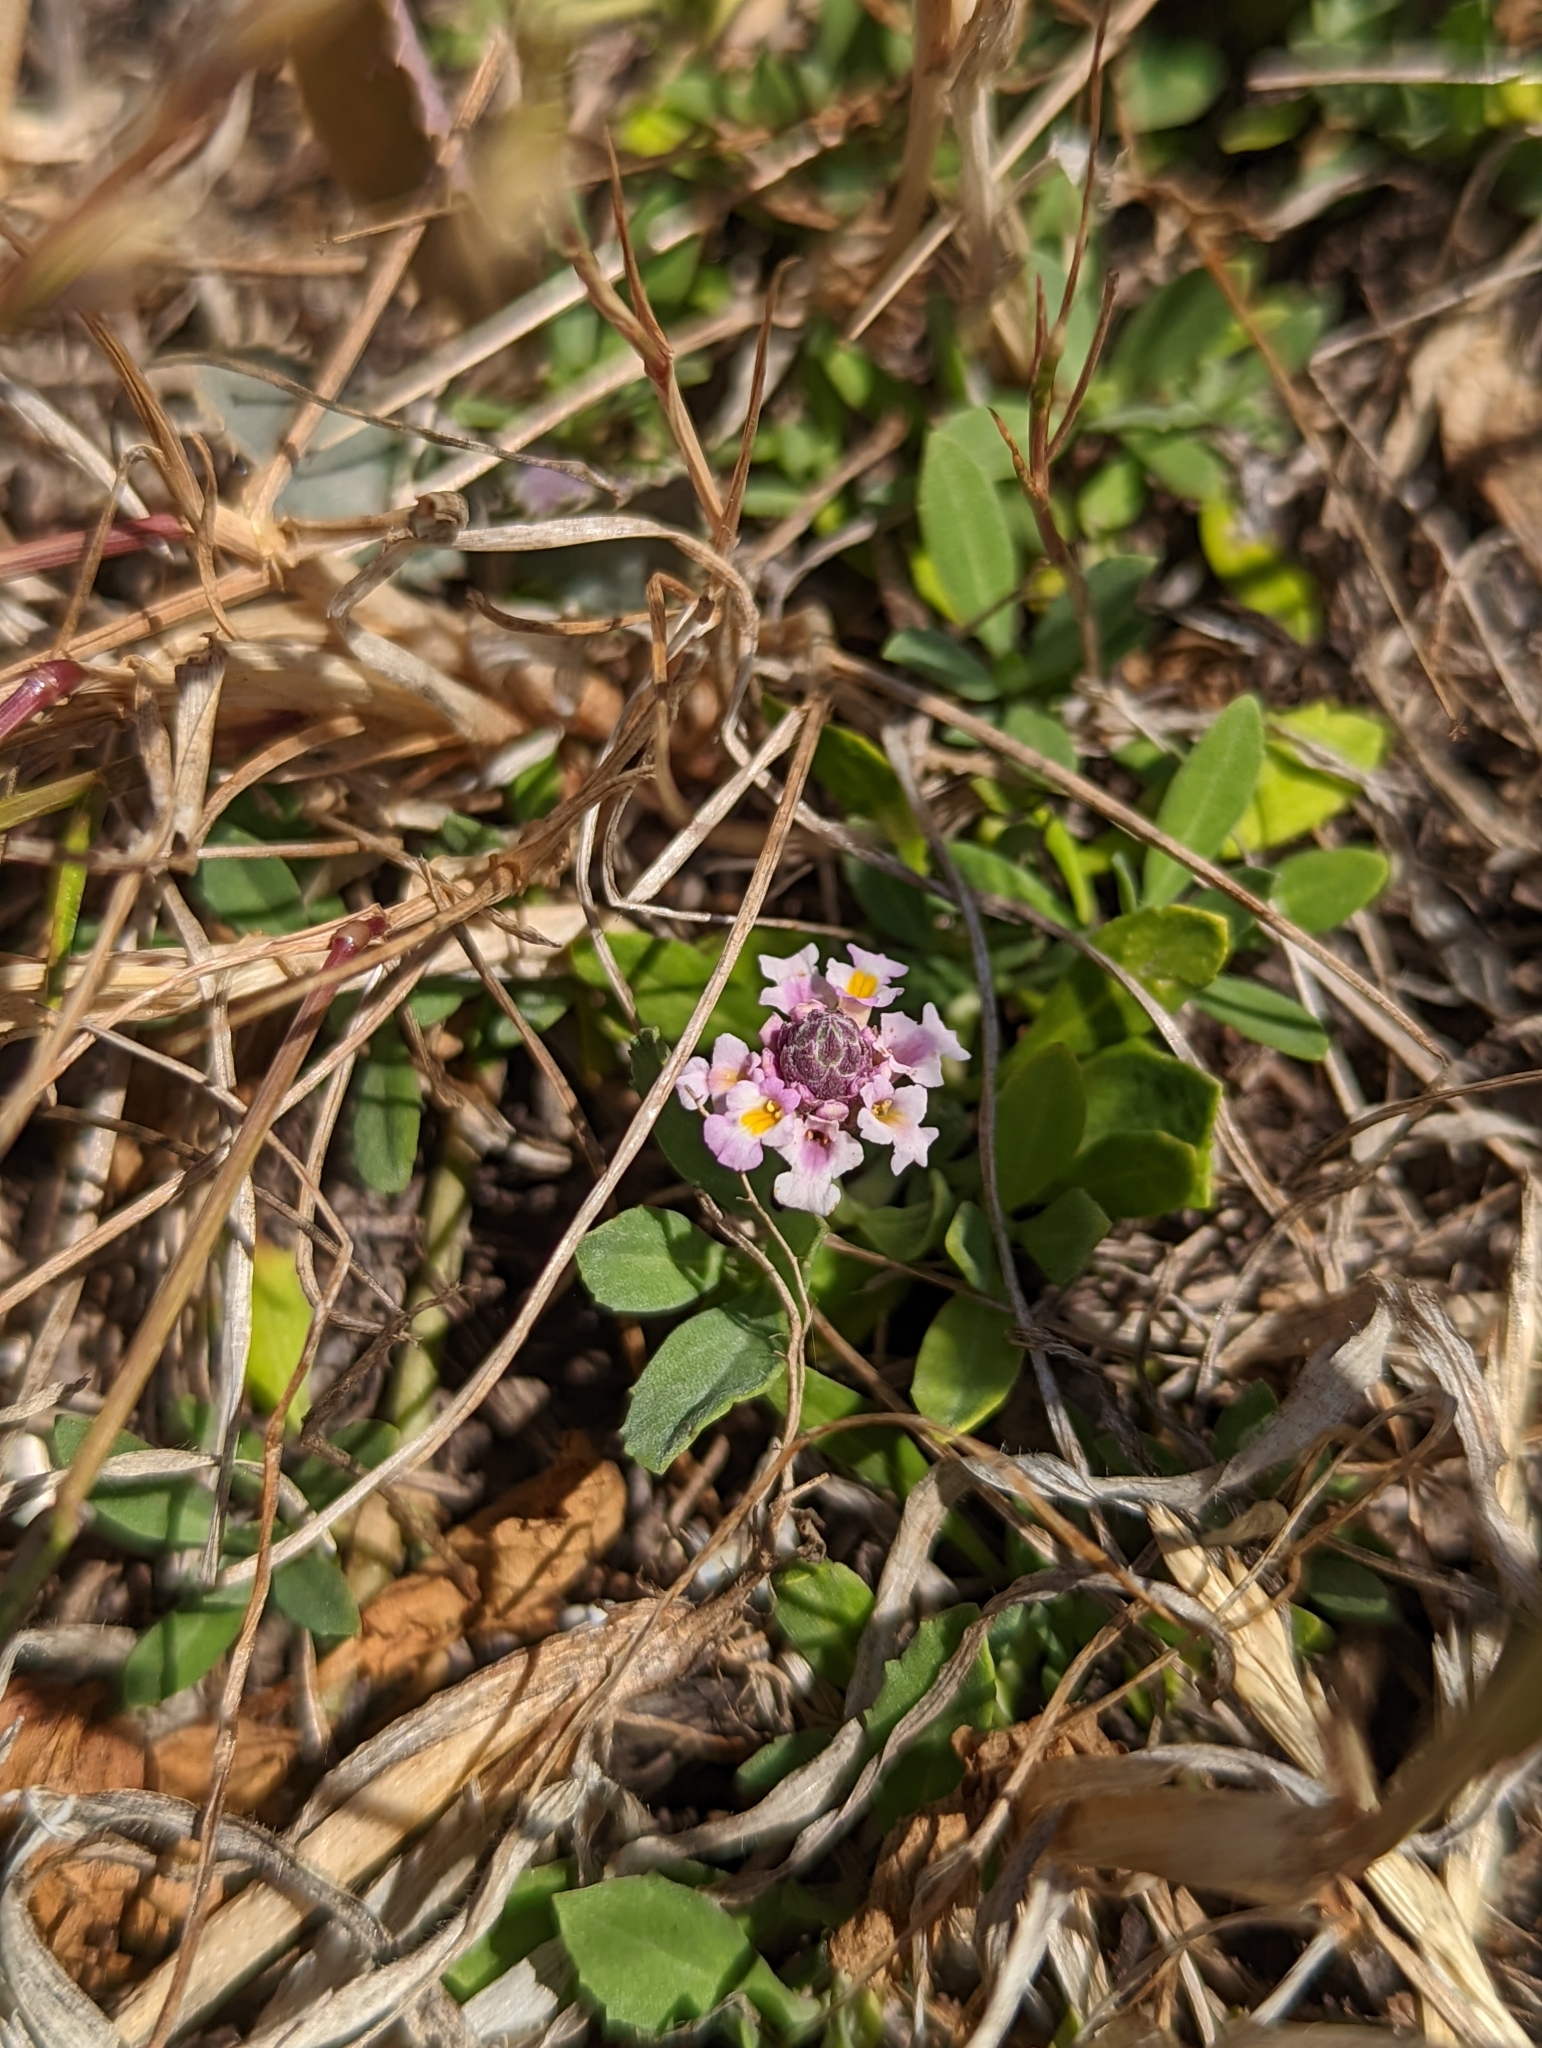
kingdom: Plantae
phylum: Tracheophyta
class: Magnoliopsida
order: Lamiales
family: Verbenaceae
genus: Phyla
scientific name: Phyla nodiflora
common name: Frogfruit
